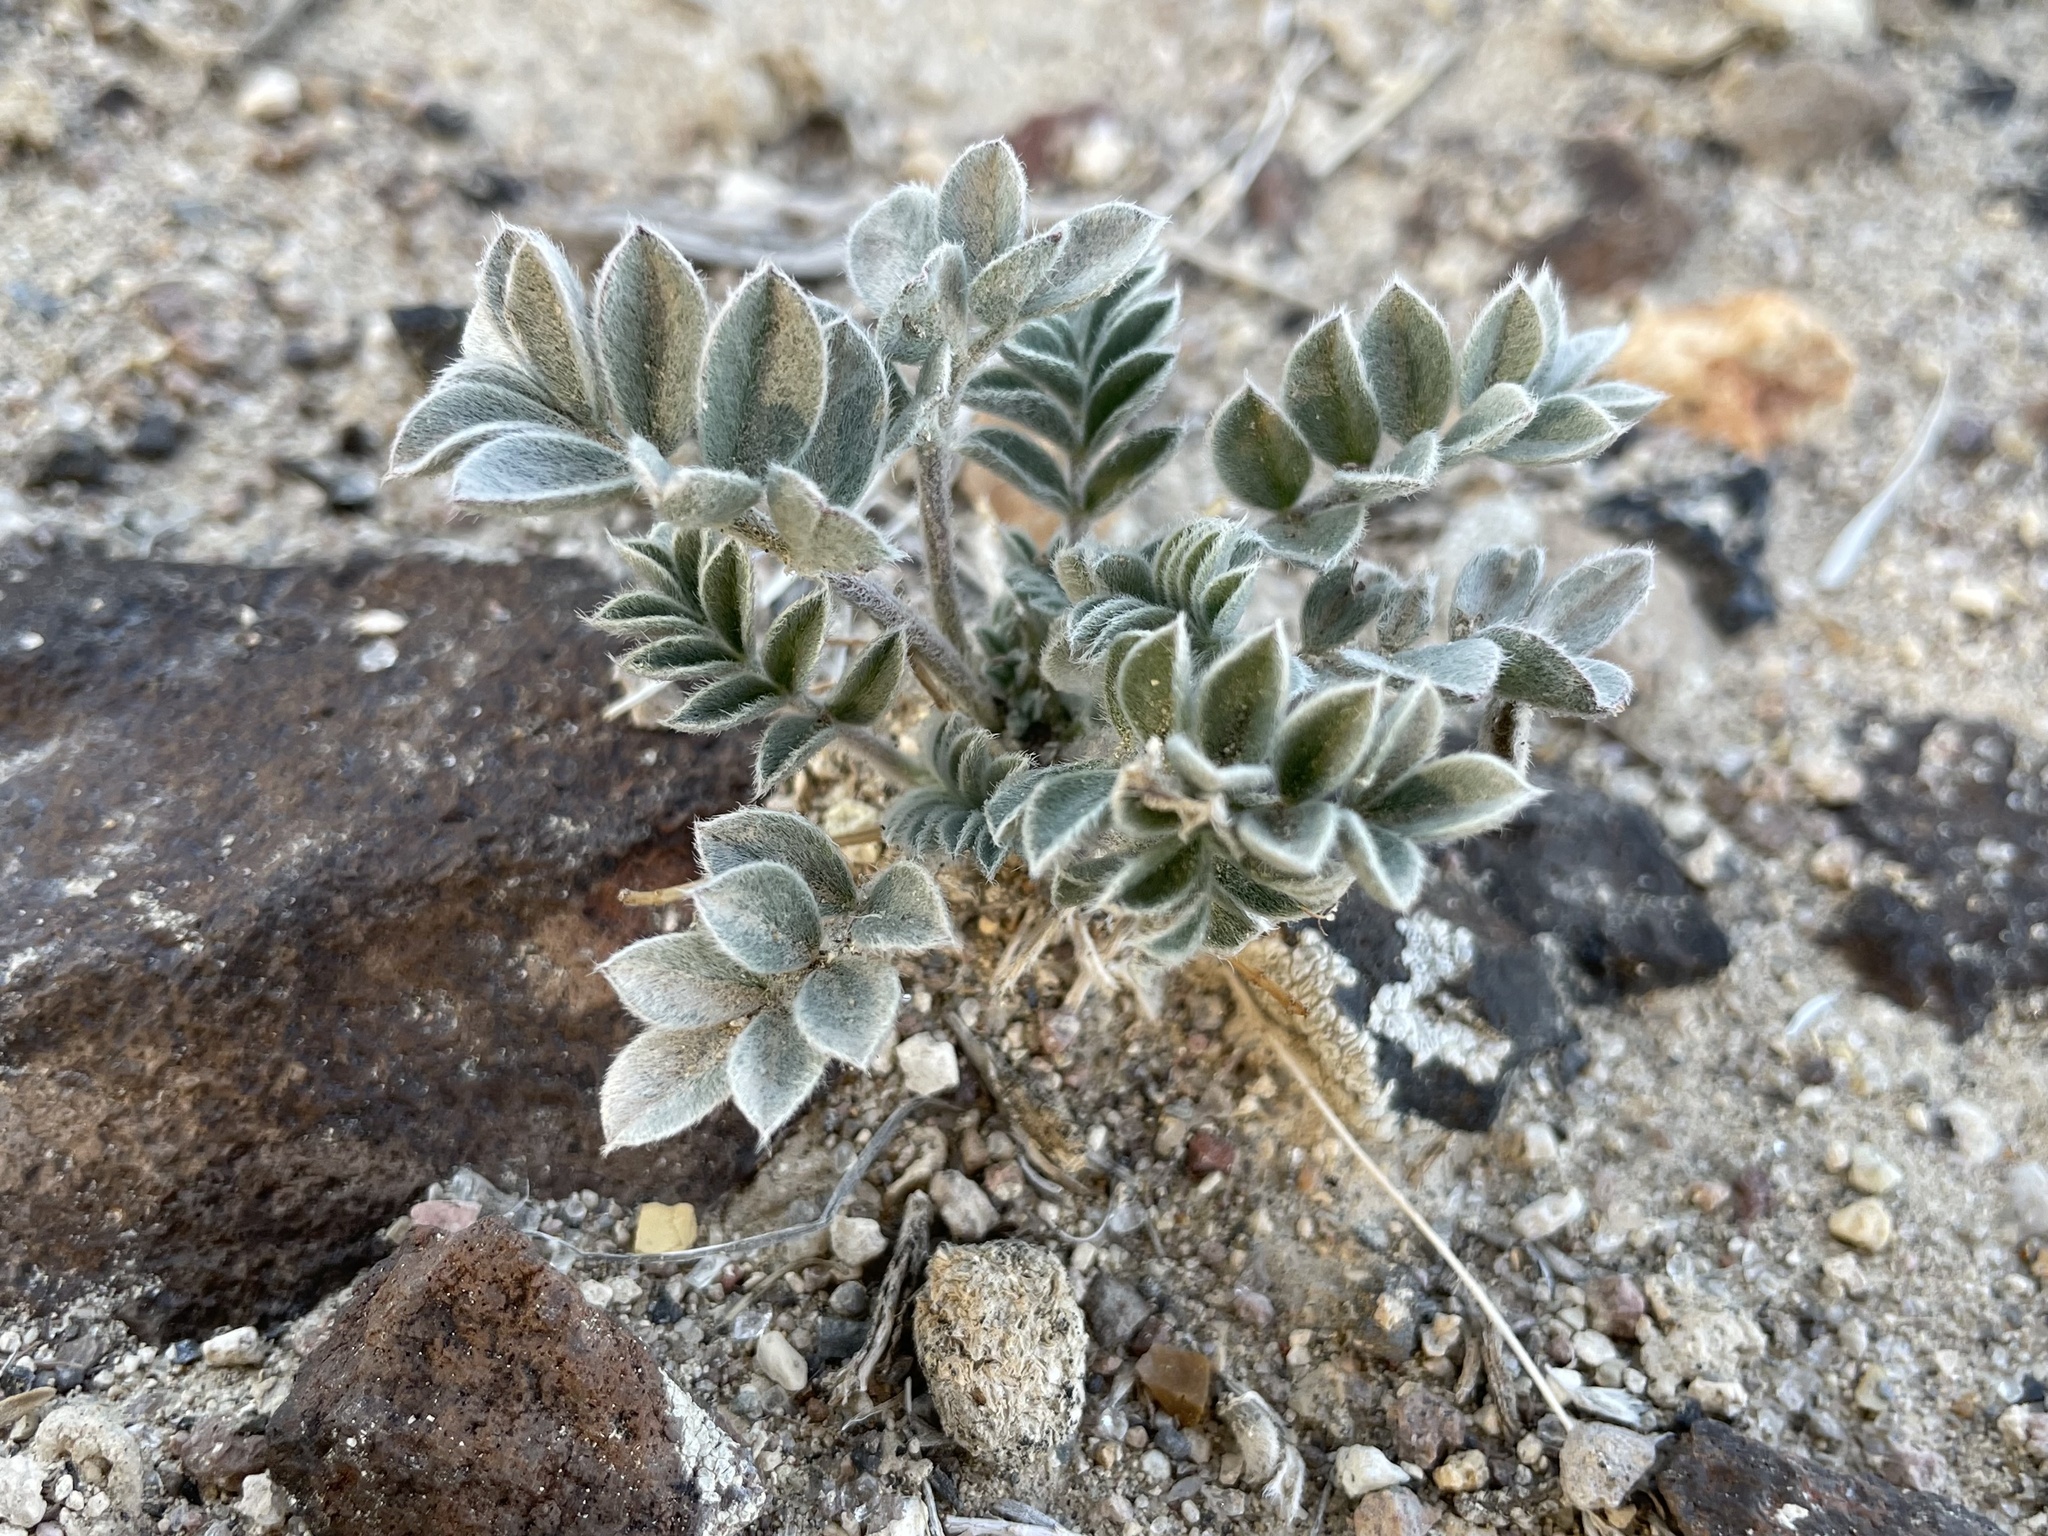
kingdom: Plantae
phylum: Tracheophyta
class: Magnoliopsida
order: Fabales
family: Fabaceae
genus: Astragalus
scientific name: Astragalus newberryi
